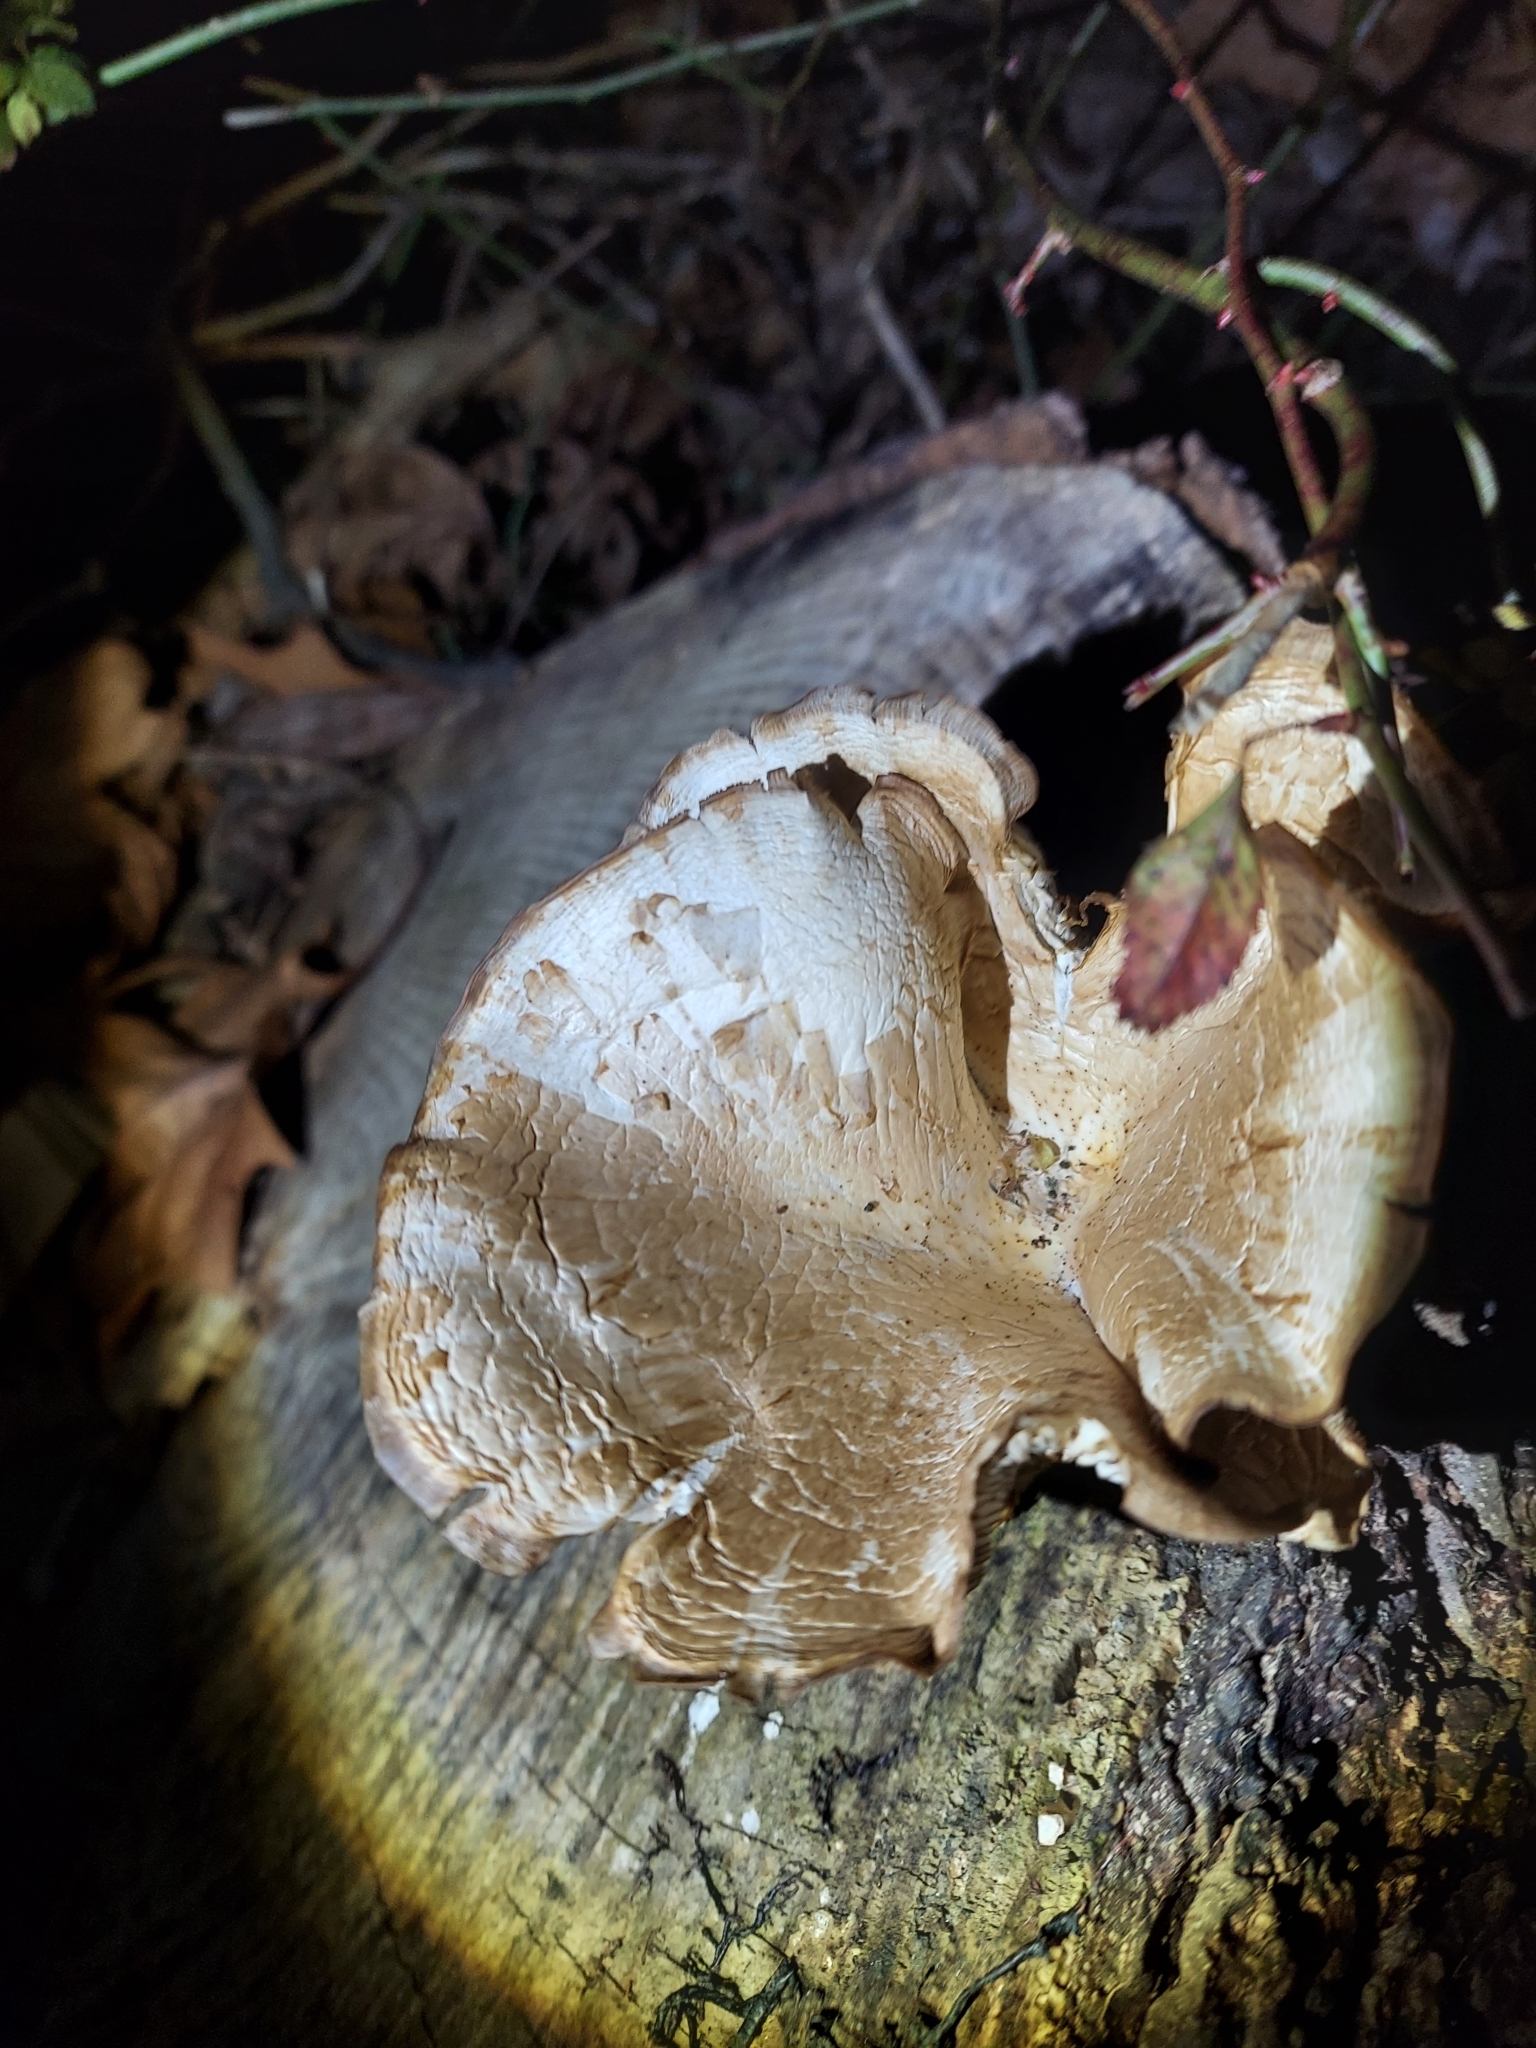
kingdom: Fungi
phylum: Basidiomycota
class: Agaricomycetes
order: Agaricales
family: Pleurotaceae
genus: Pleurotus
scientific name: Pleurotus ostreatus
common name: Oyster mushroom
